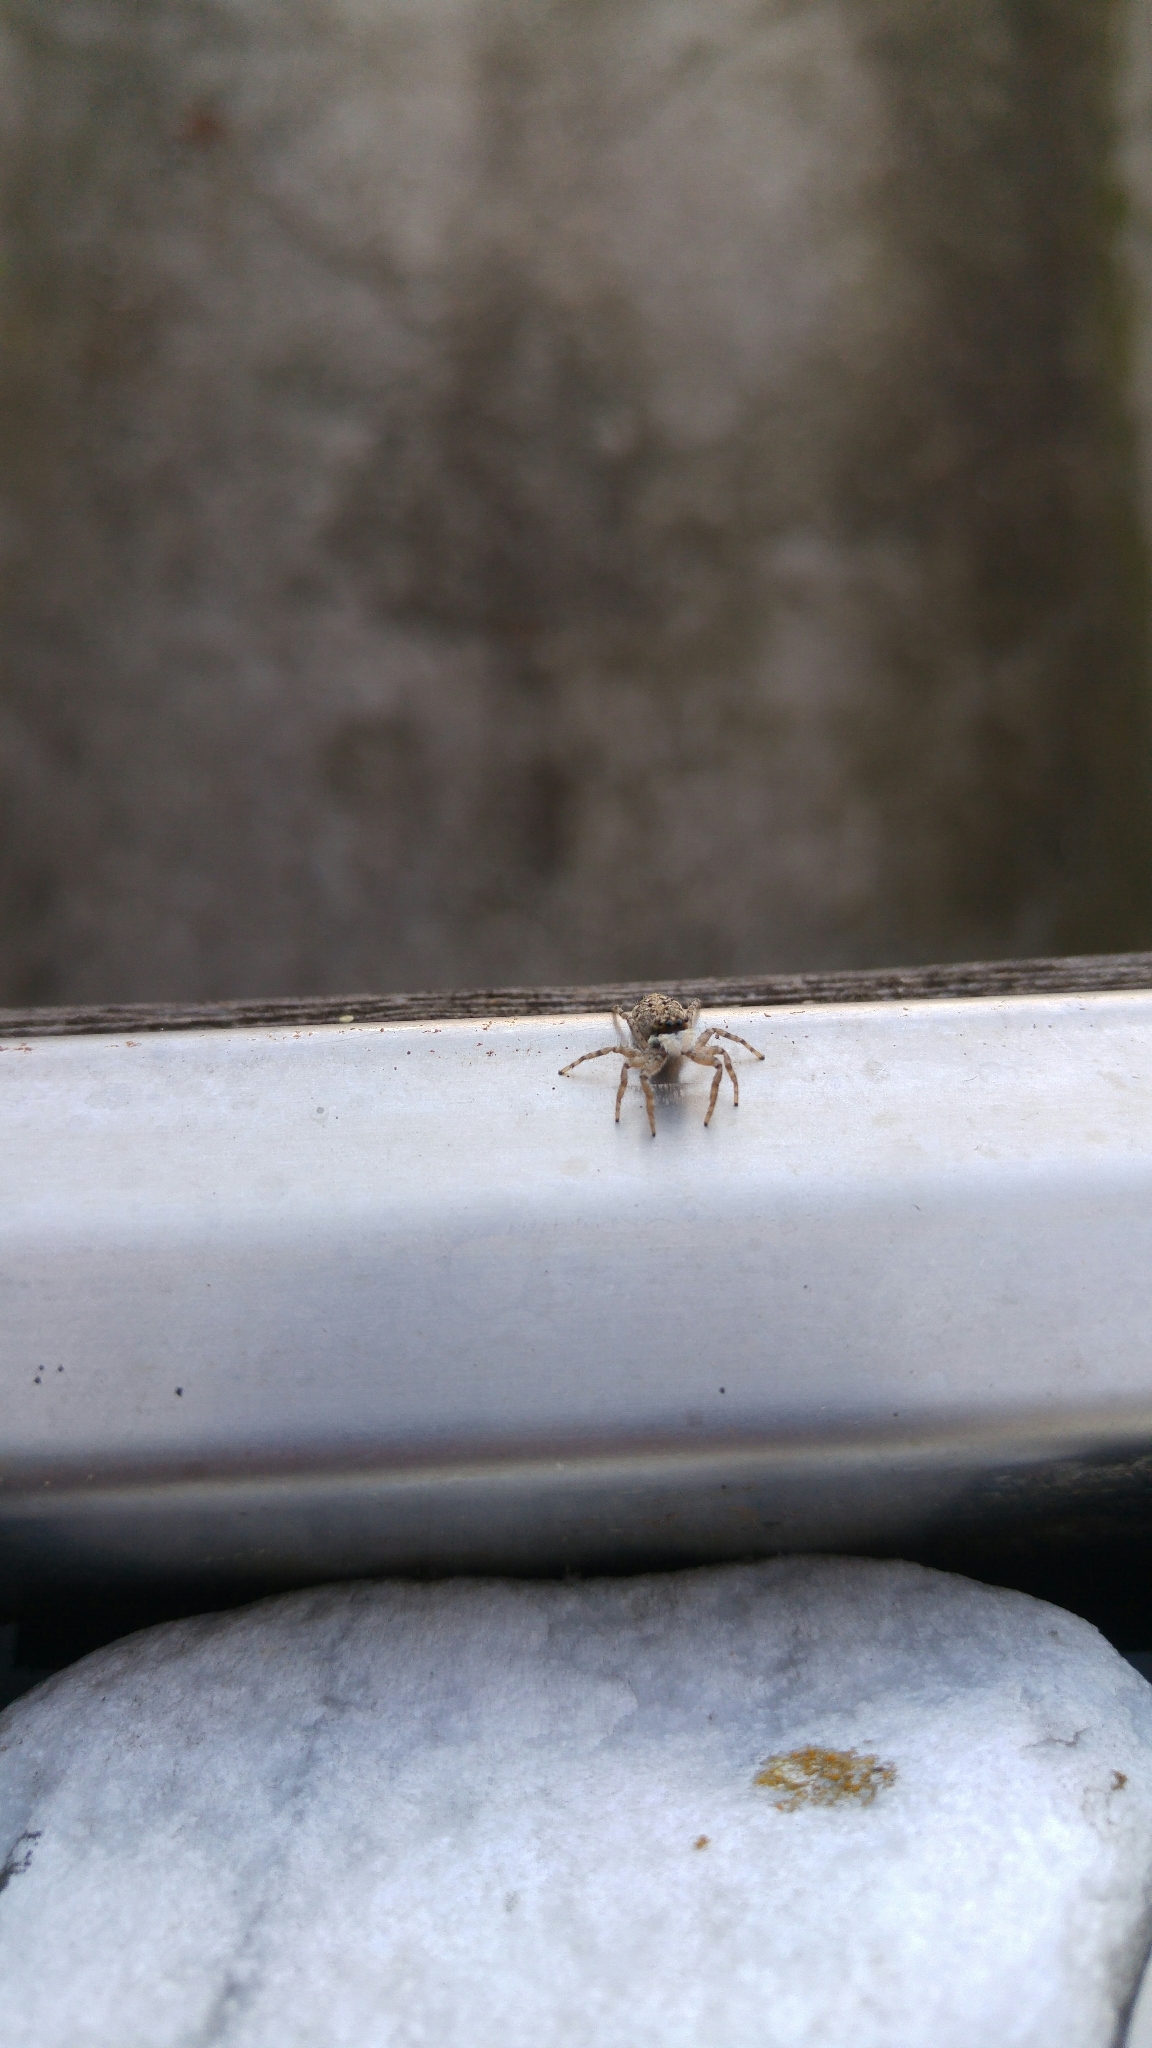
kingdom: Animalia
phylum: Arthropoda
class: Arachnida
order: Araneae
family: Salticidae
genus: Menemerus
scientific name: Menemerus semilimbatus
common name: Jumping spider
